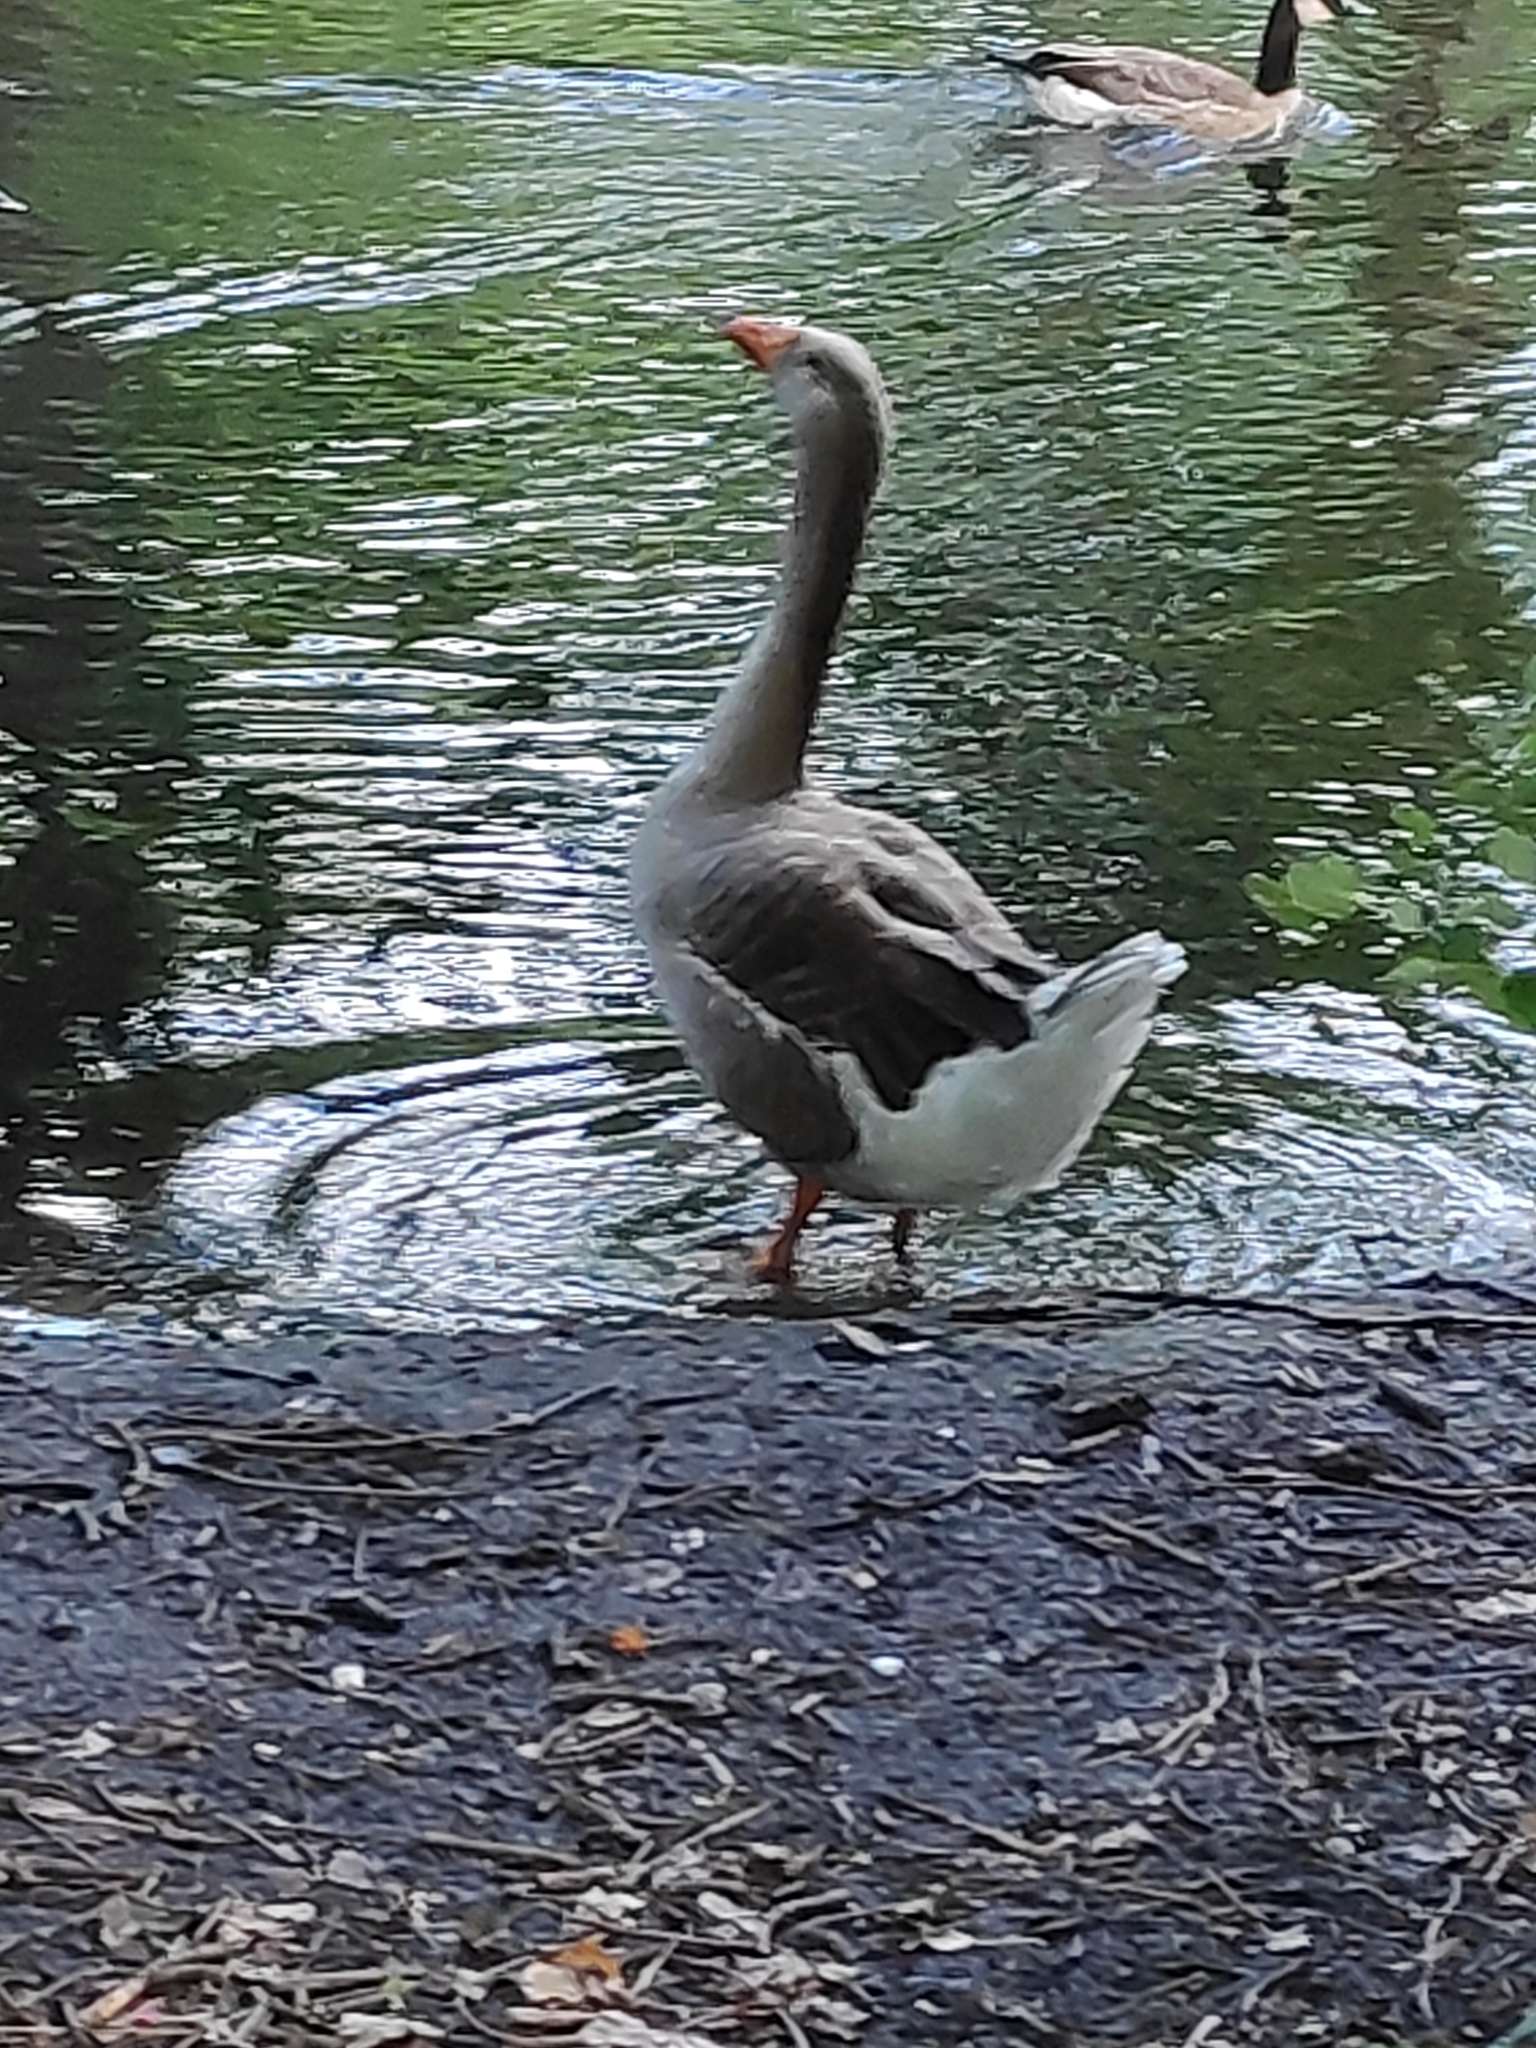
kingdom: Animalia
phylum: Chordata
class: Aves
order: Anseriformes
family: Anatidae
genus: Anser
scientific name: Anser
